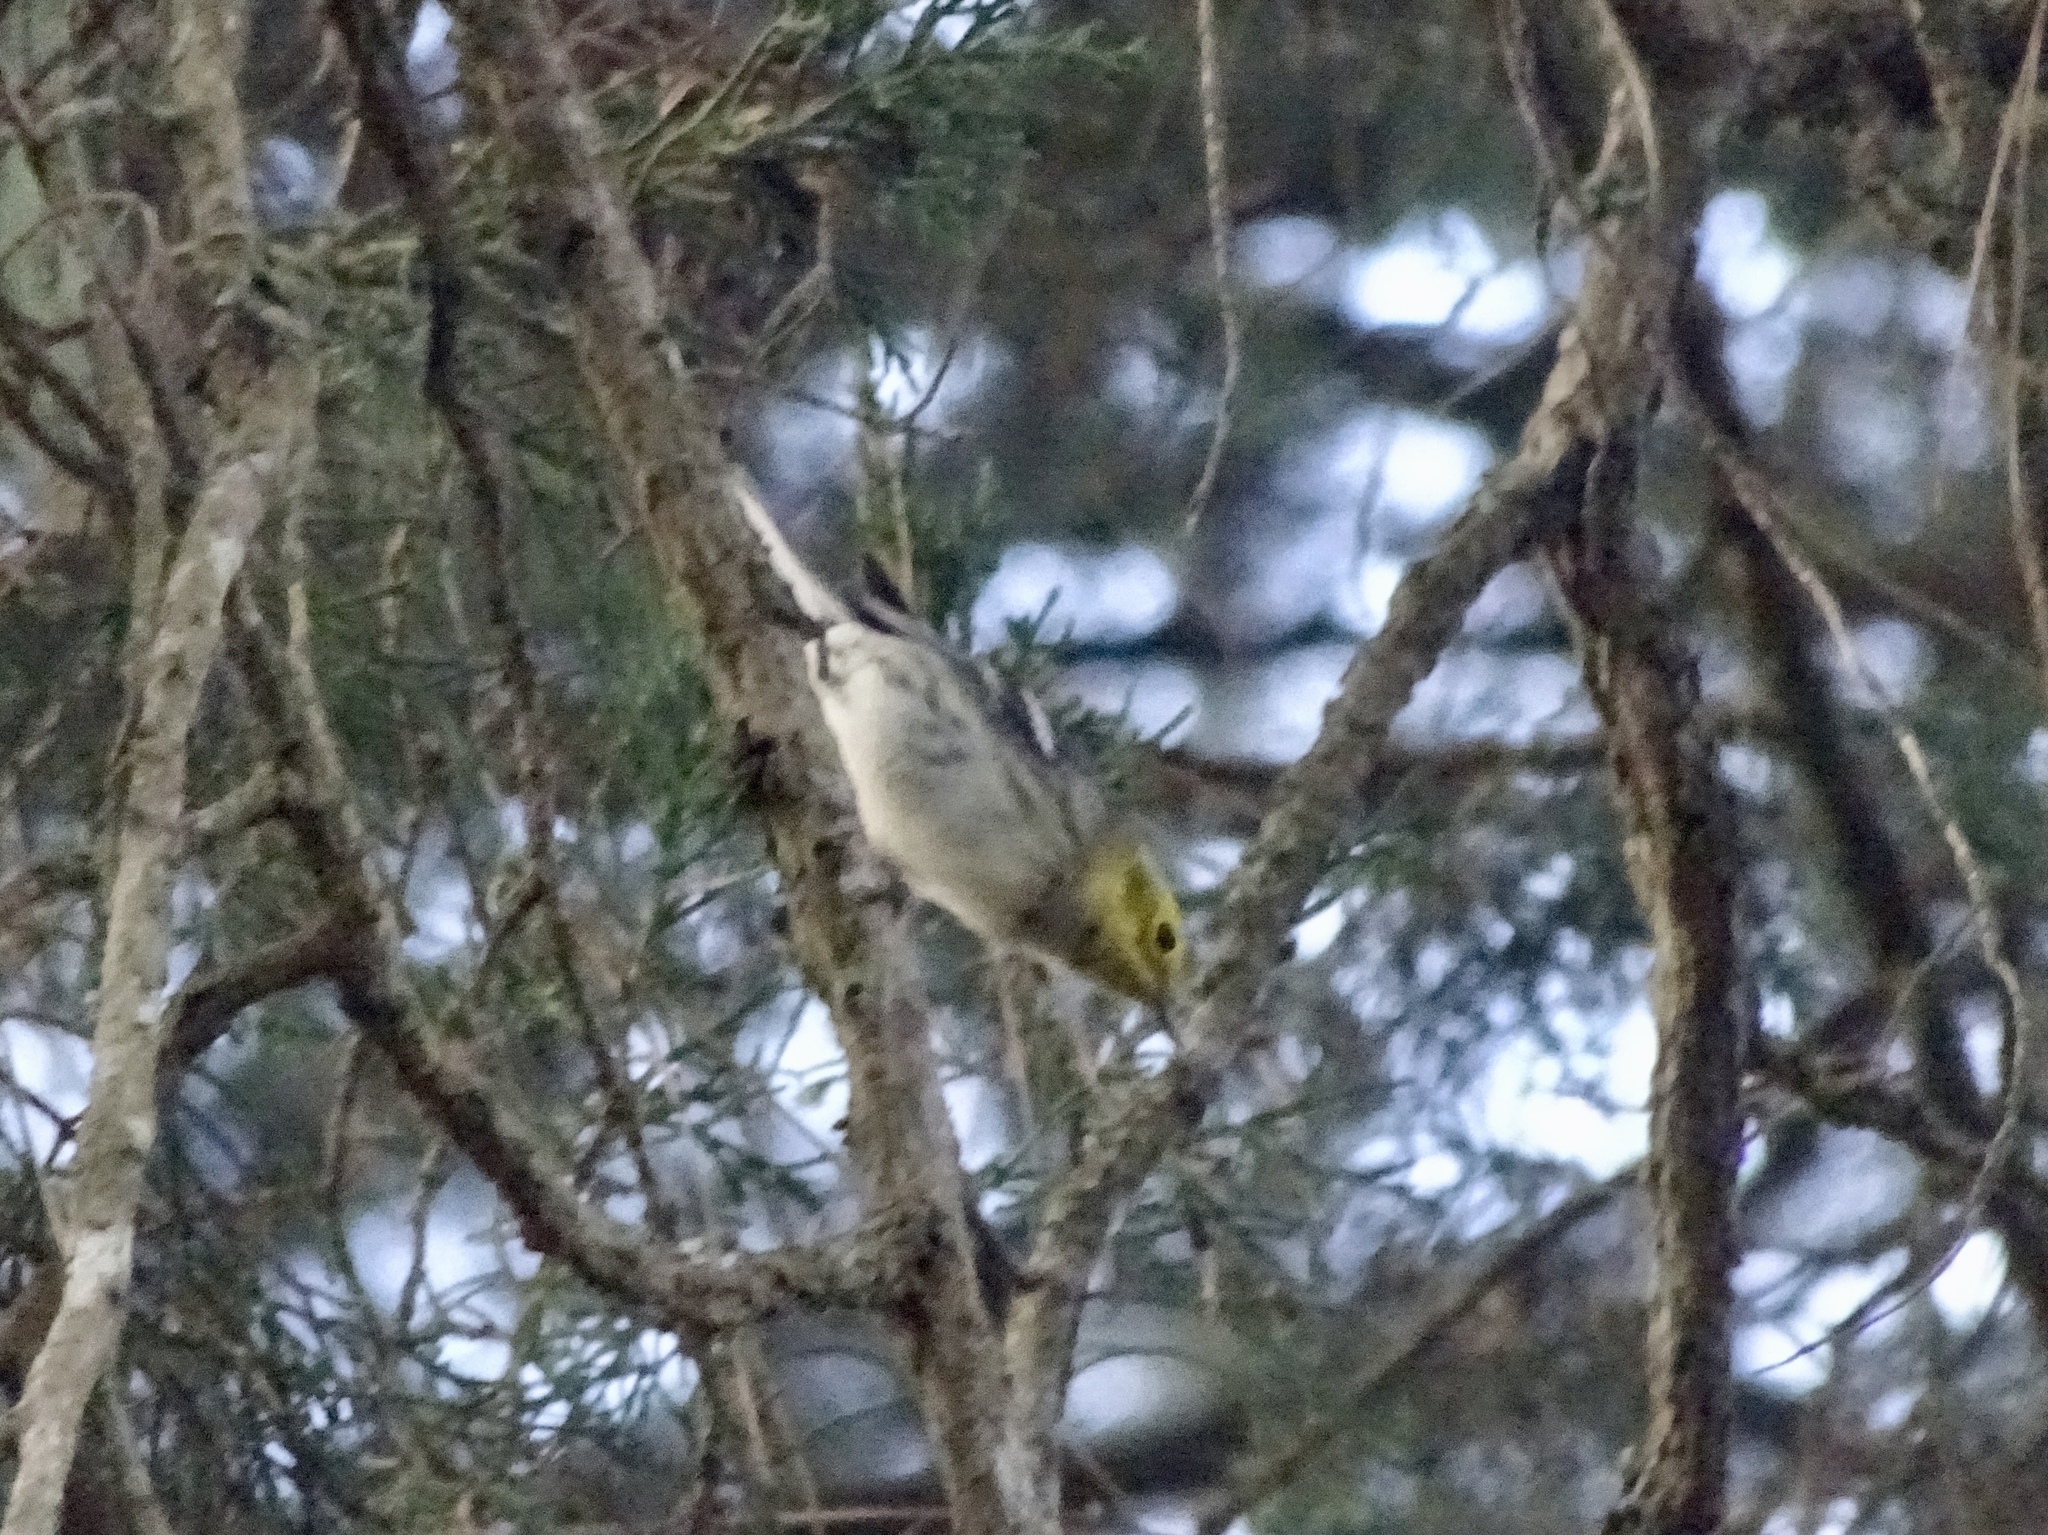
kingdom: Animalia
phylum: Chordata
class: Aves
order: Passeriformes
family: Parulidae
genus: Setophaga
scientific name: Setophaga
